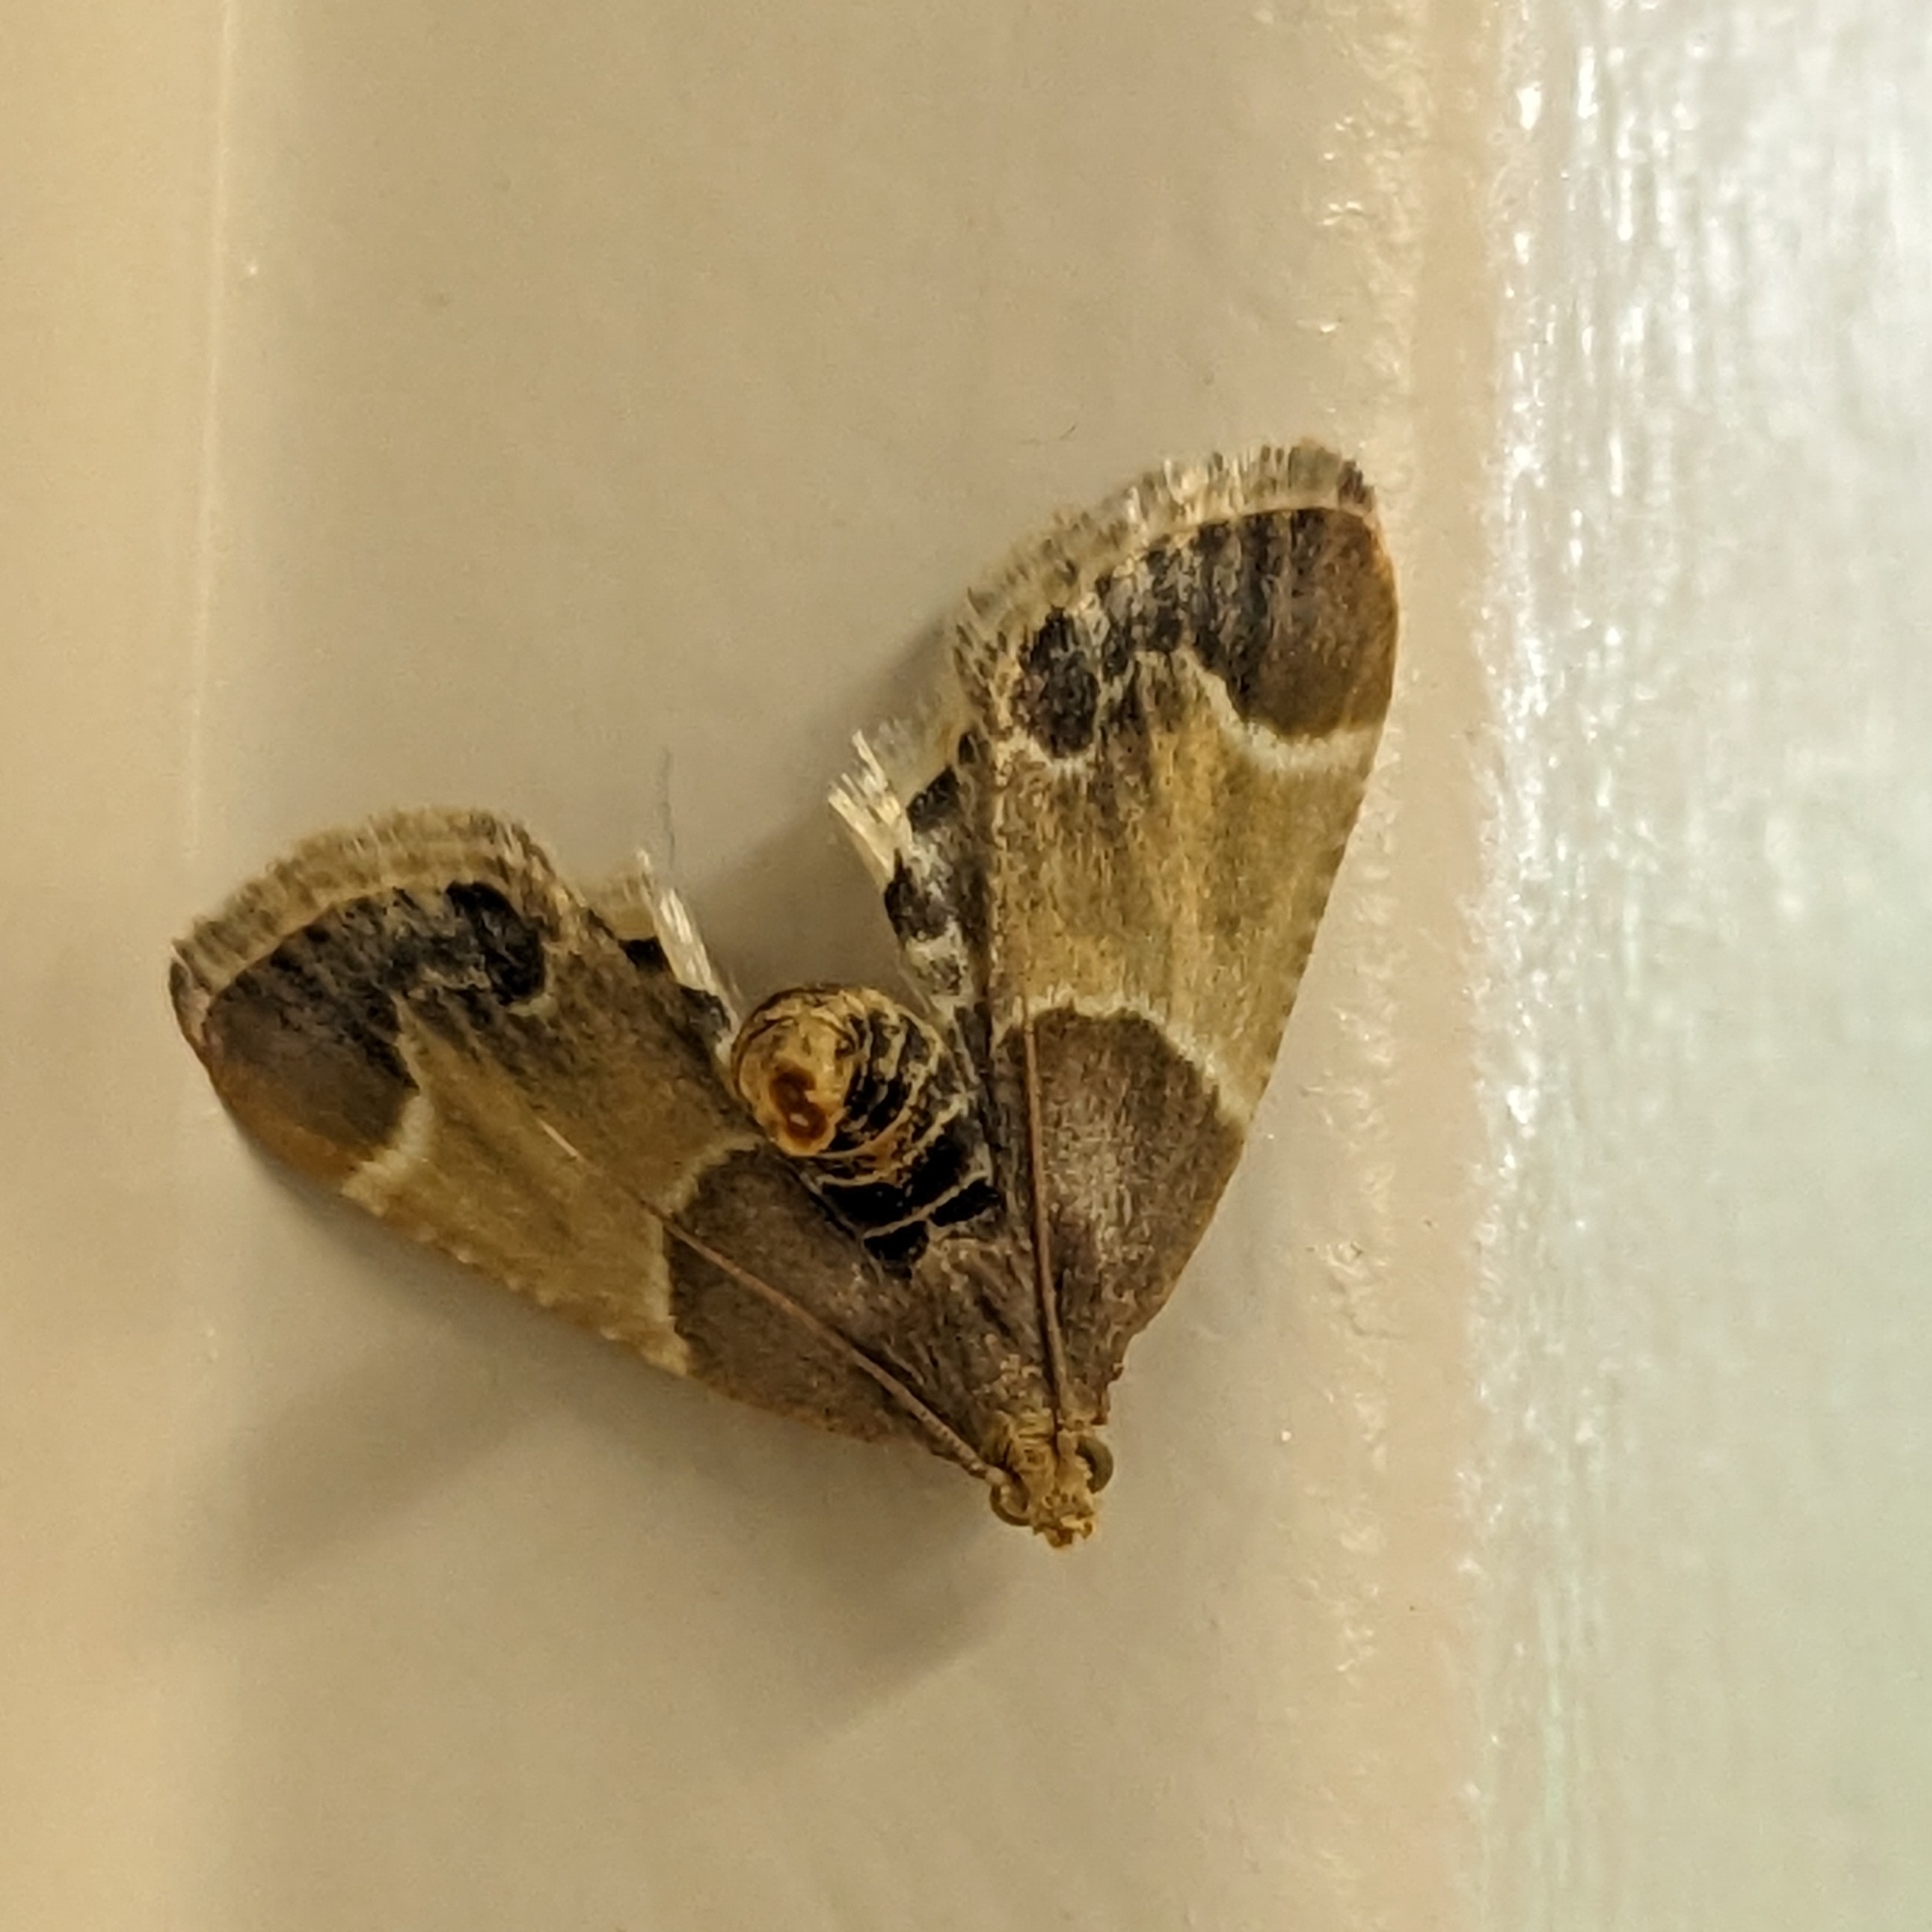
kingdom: Animalia
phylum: Arthropoda
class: Insecta
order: Lepidoptera
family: Pyralidae
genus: Pyralis
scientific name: Pyralis farinalis
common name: Meal moth
